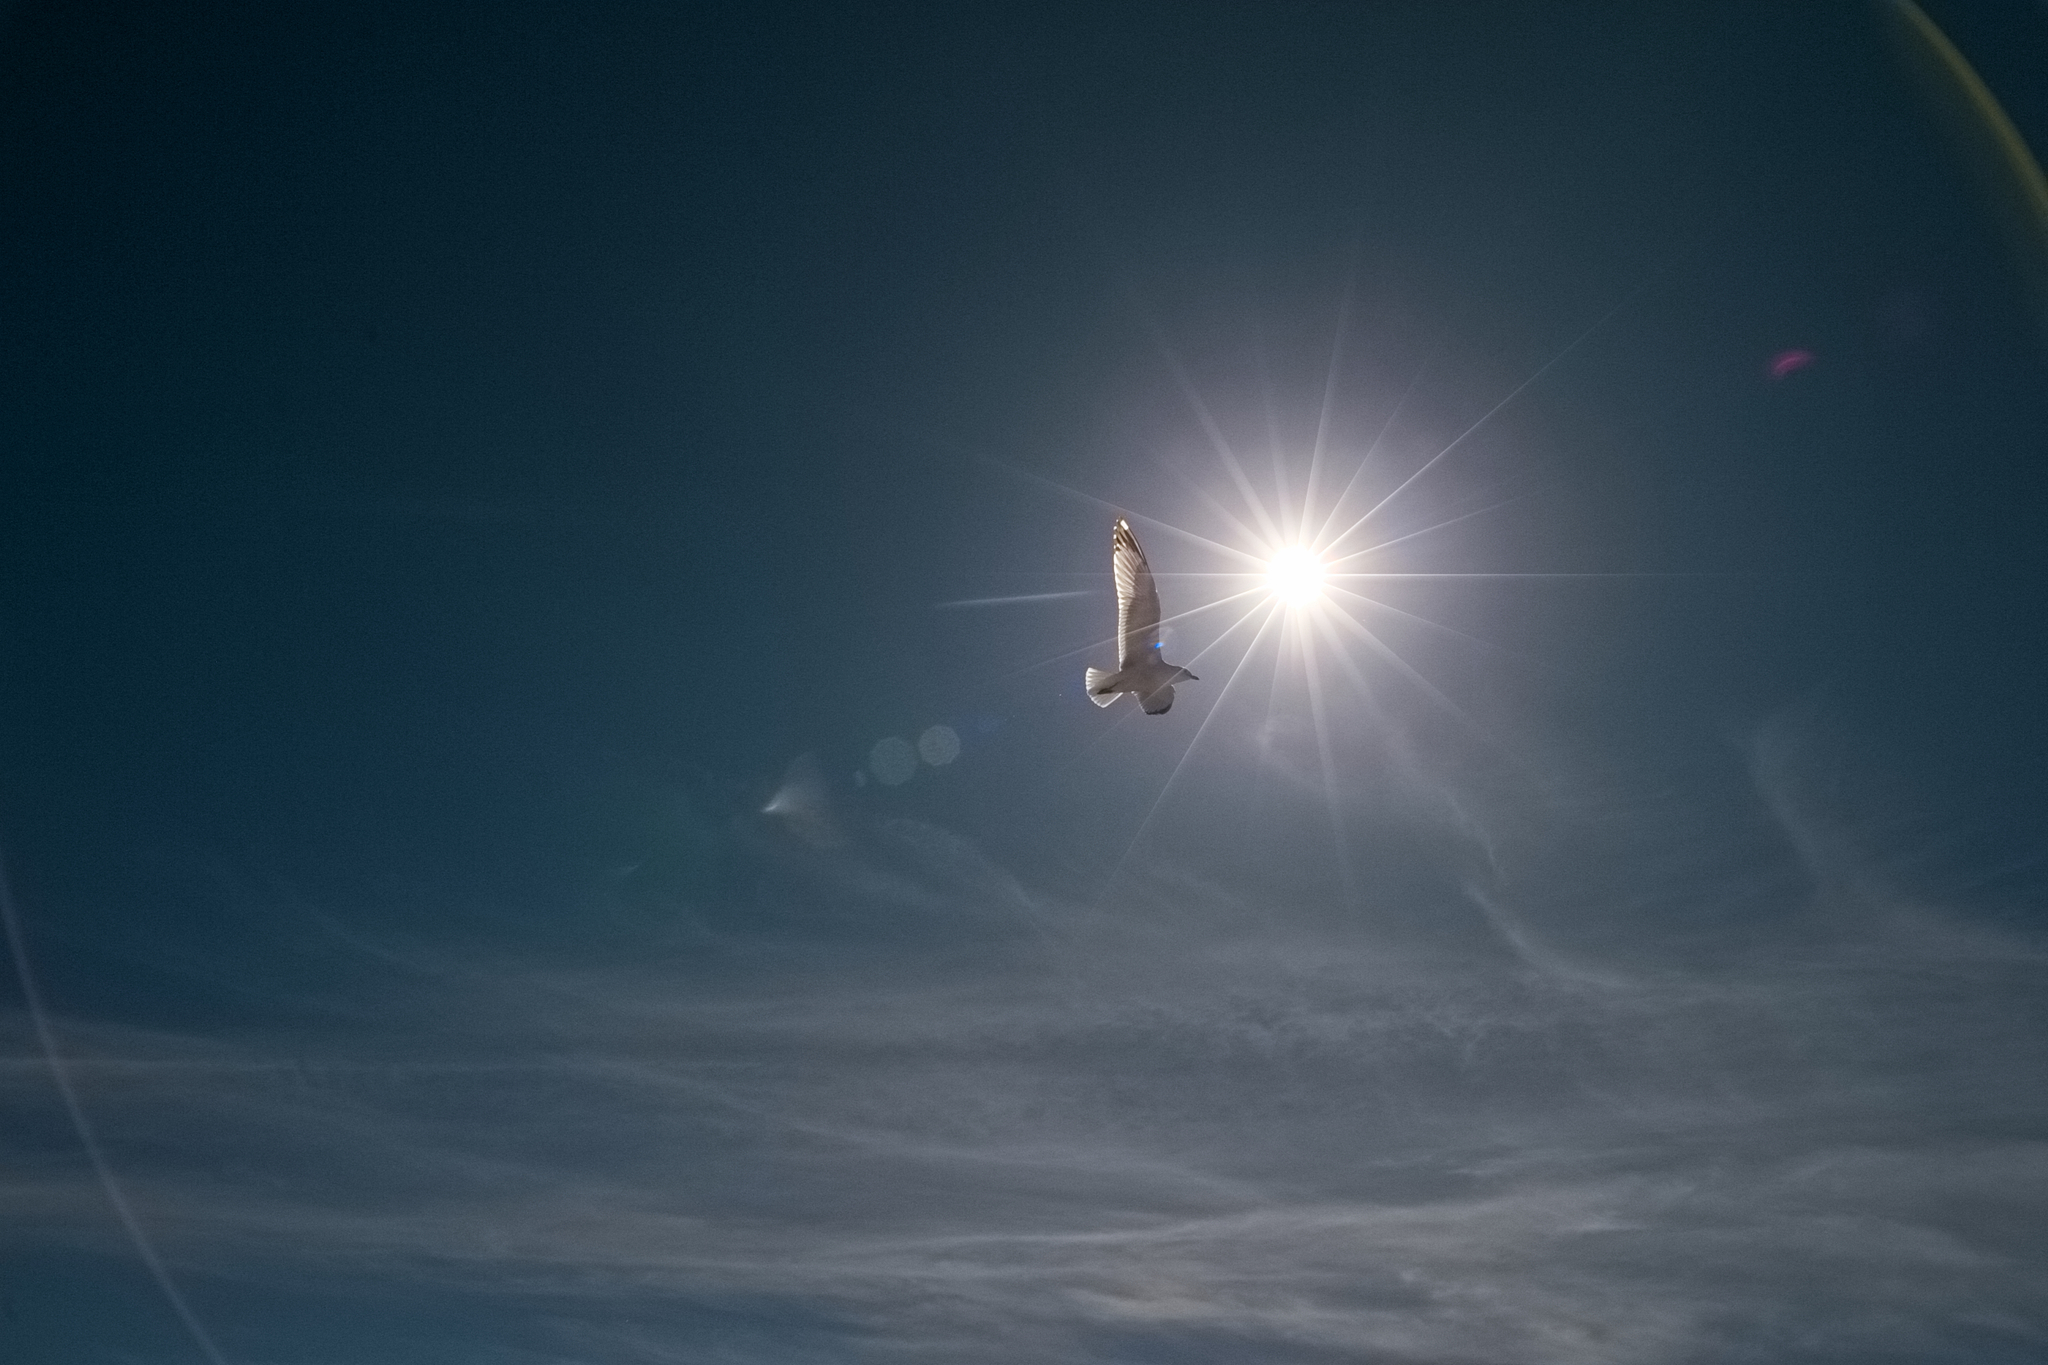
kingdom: Animalia
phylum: Chordata
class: Aves
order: Charadriiformes
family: Laridae
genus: Larus
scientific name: Larus delawarensis
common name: Ring-billed gull
